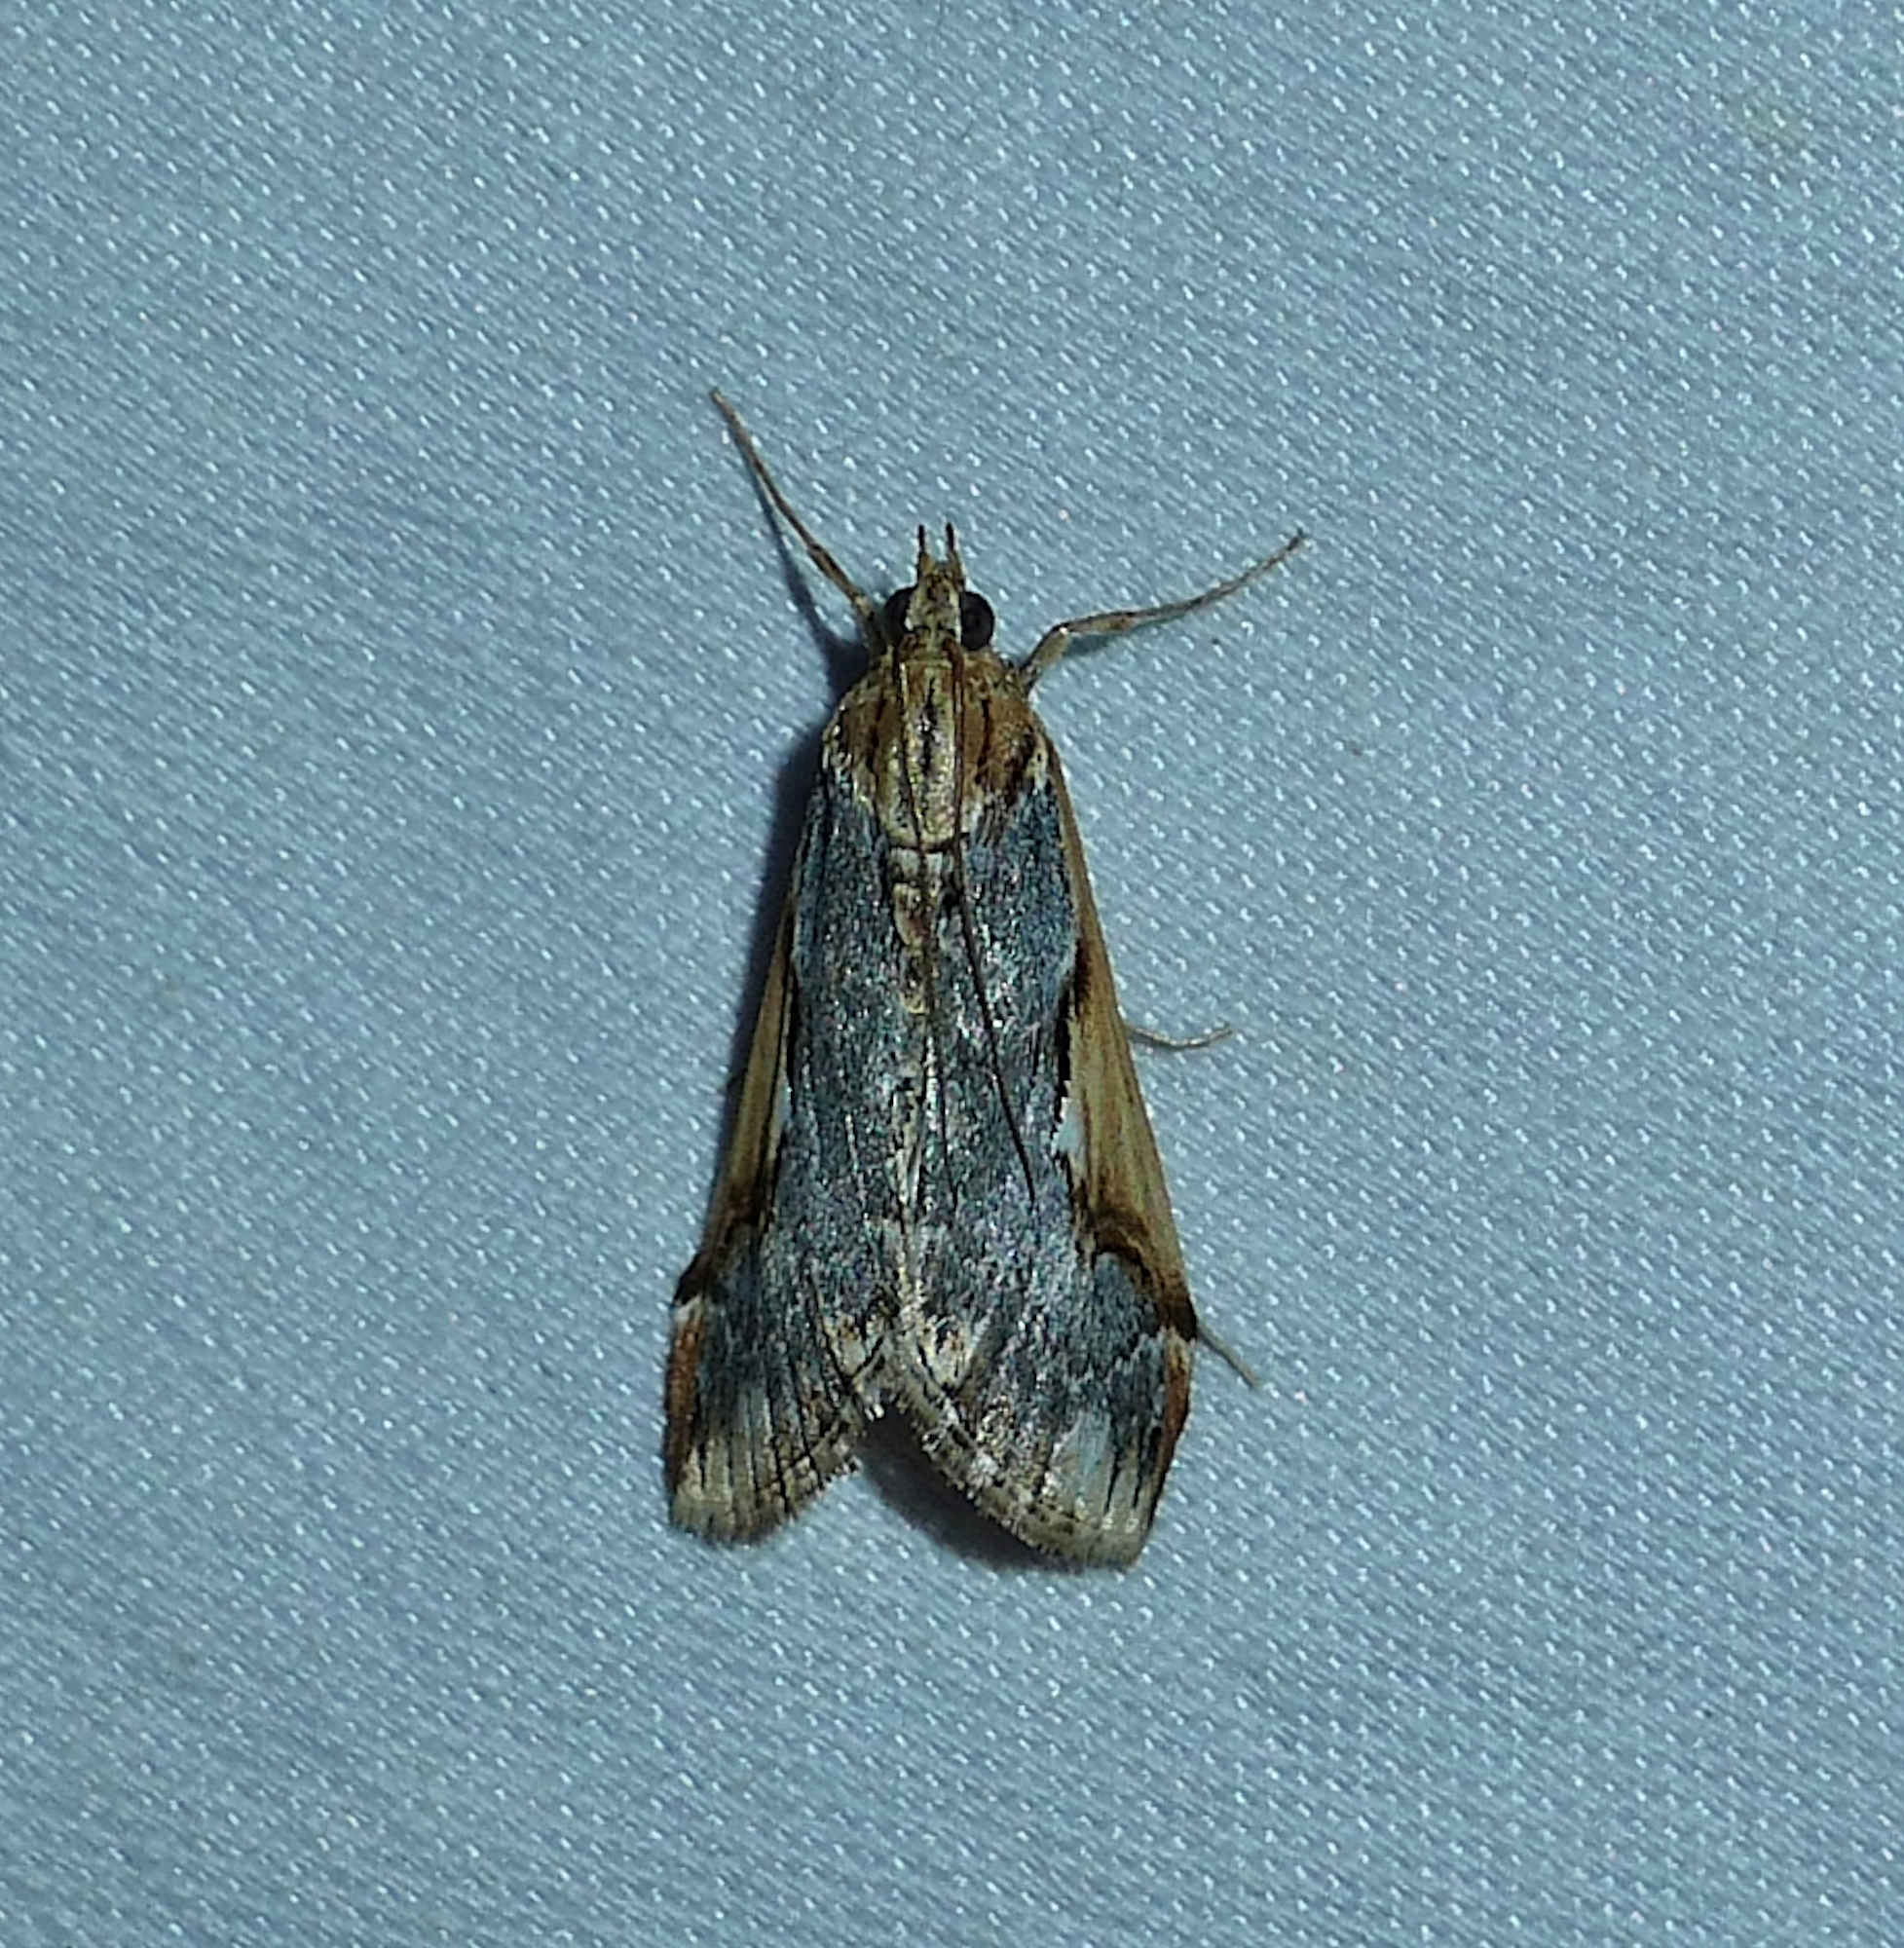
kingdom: Animalia
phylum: Arthropoda
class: Insecta
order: Lepidoptera
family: Crambidae
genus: Loxostege
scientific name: Loxostege albiceralis
